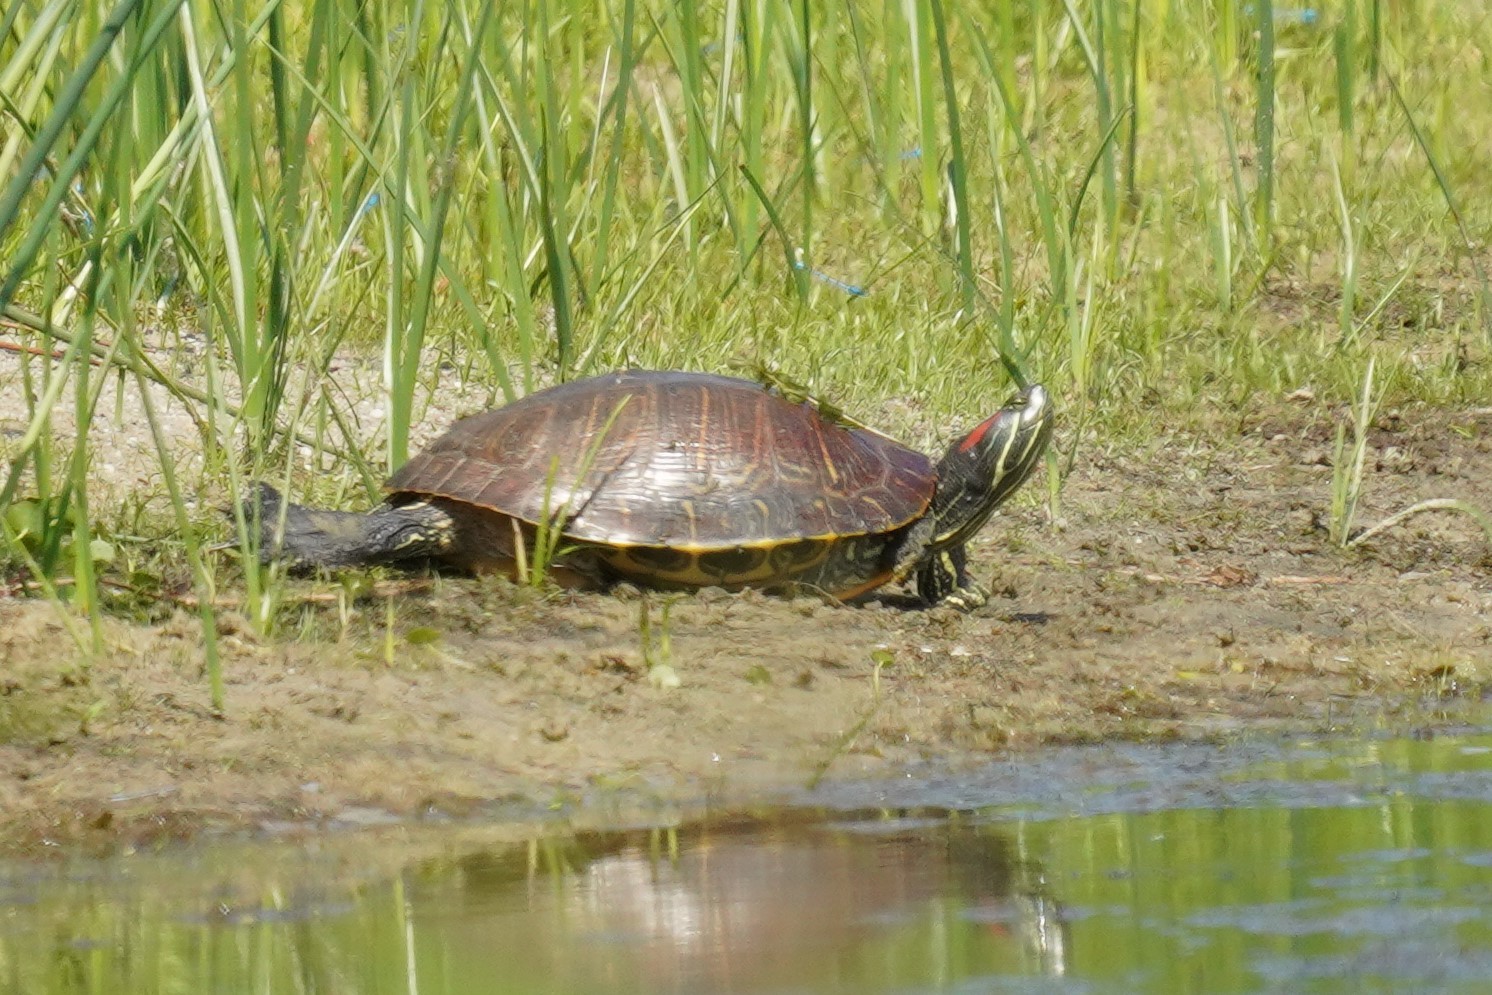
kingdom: Animalia
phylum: Chordata
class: Testudines
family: Emydidae
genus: Trachemys
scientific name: Trachemys scripta
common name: Slider
